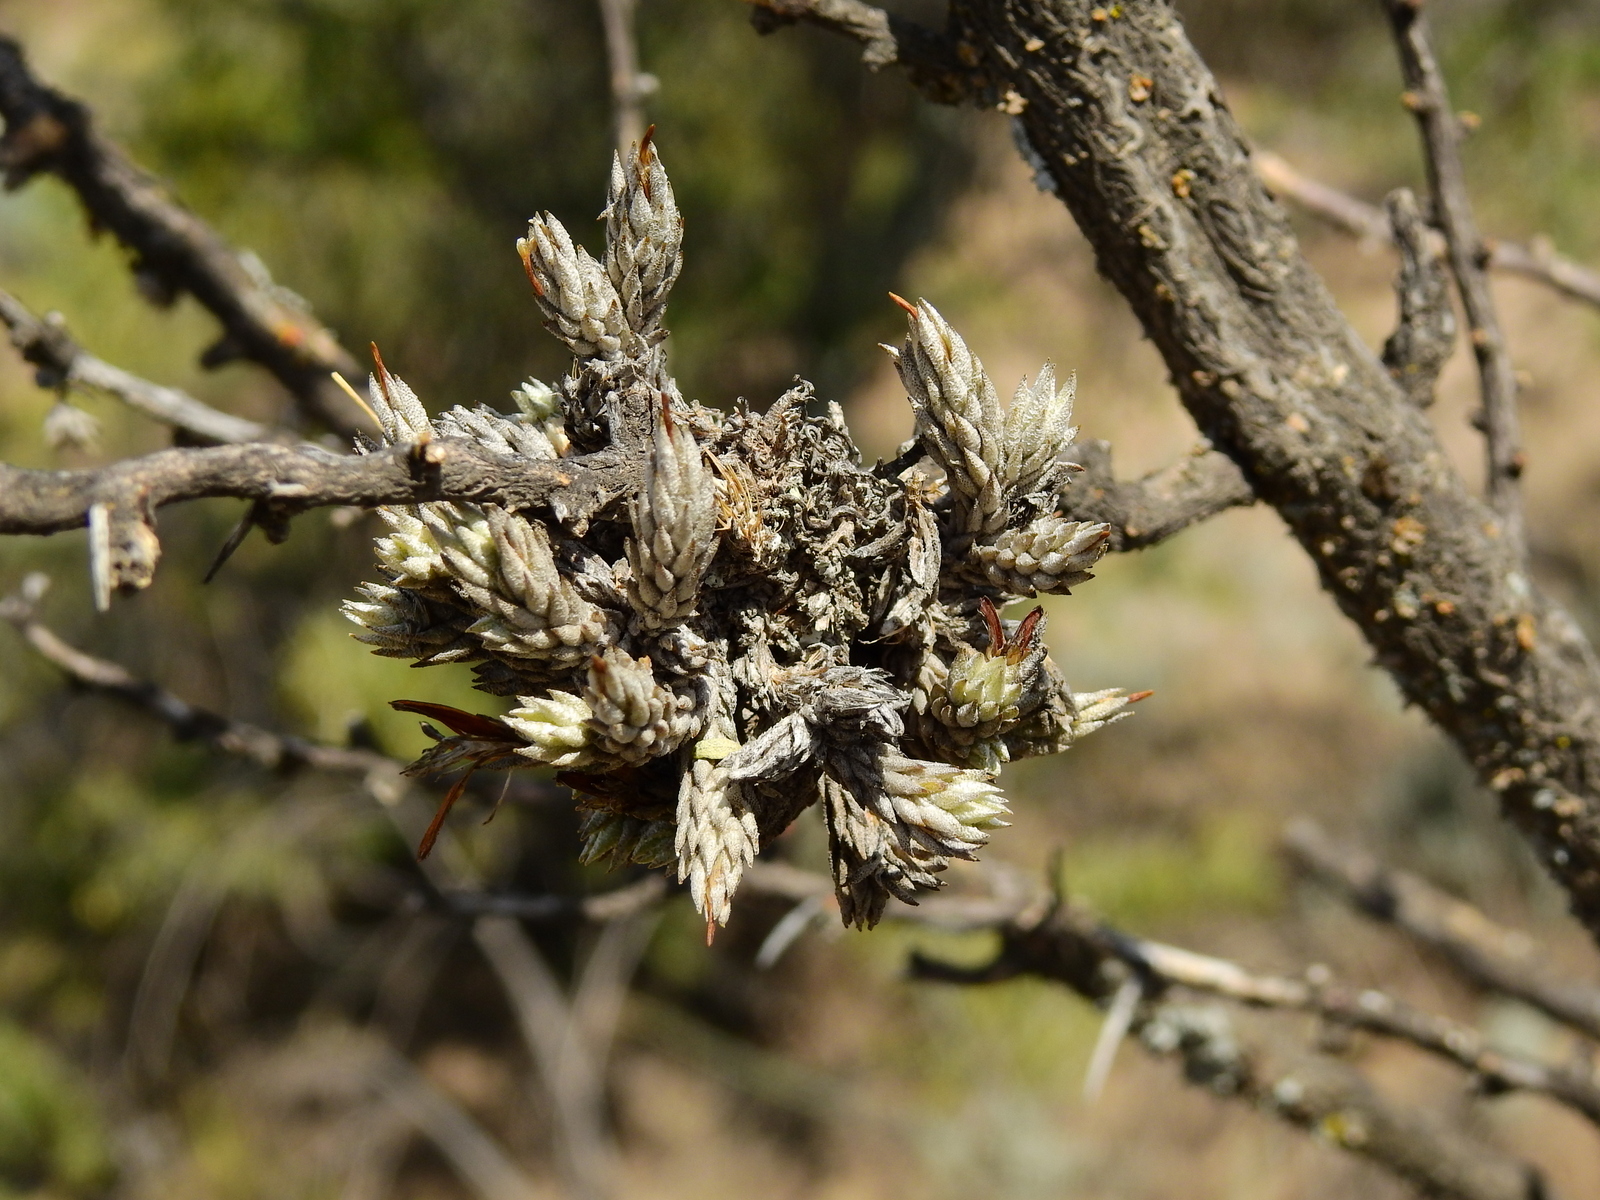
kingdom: Plantae
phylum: Tracheophyta
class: Liliopsida
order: Poales
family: Bromeliaceae
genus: Tillandsia
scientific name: Tillandsia pedicellata
